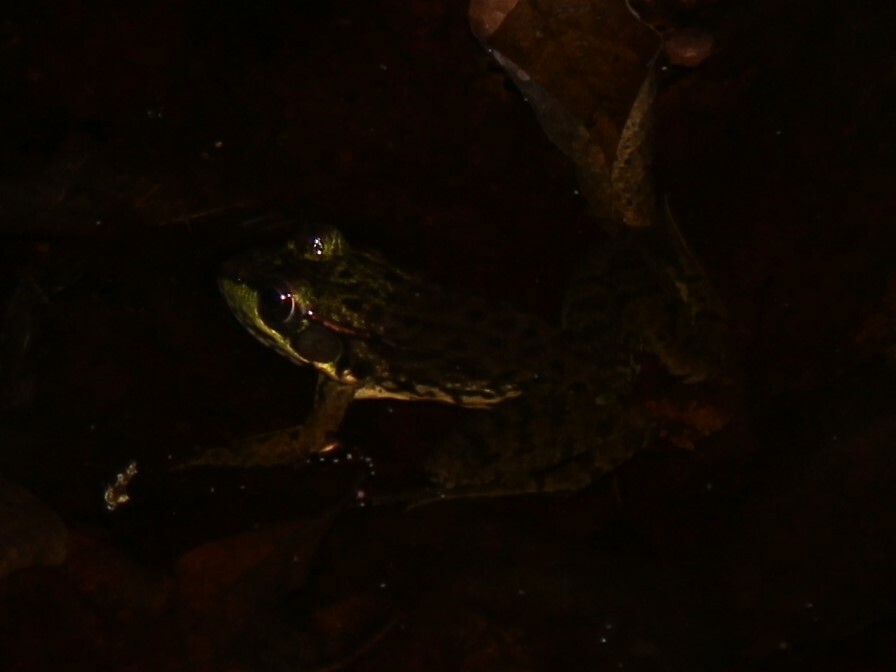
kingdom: Animalia
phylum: Chordata
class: Amphibia
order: Anura
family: Ranidae
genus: Lithobates
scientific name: Lithobates clamitans
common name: Green frog
